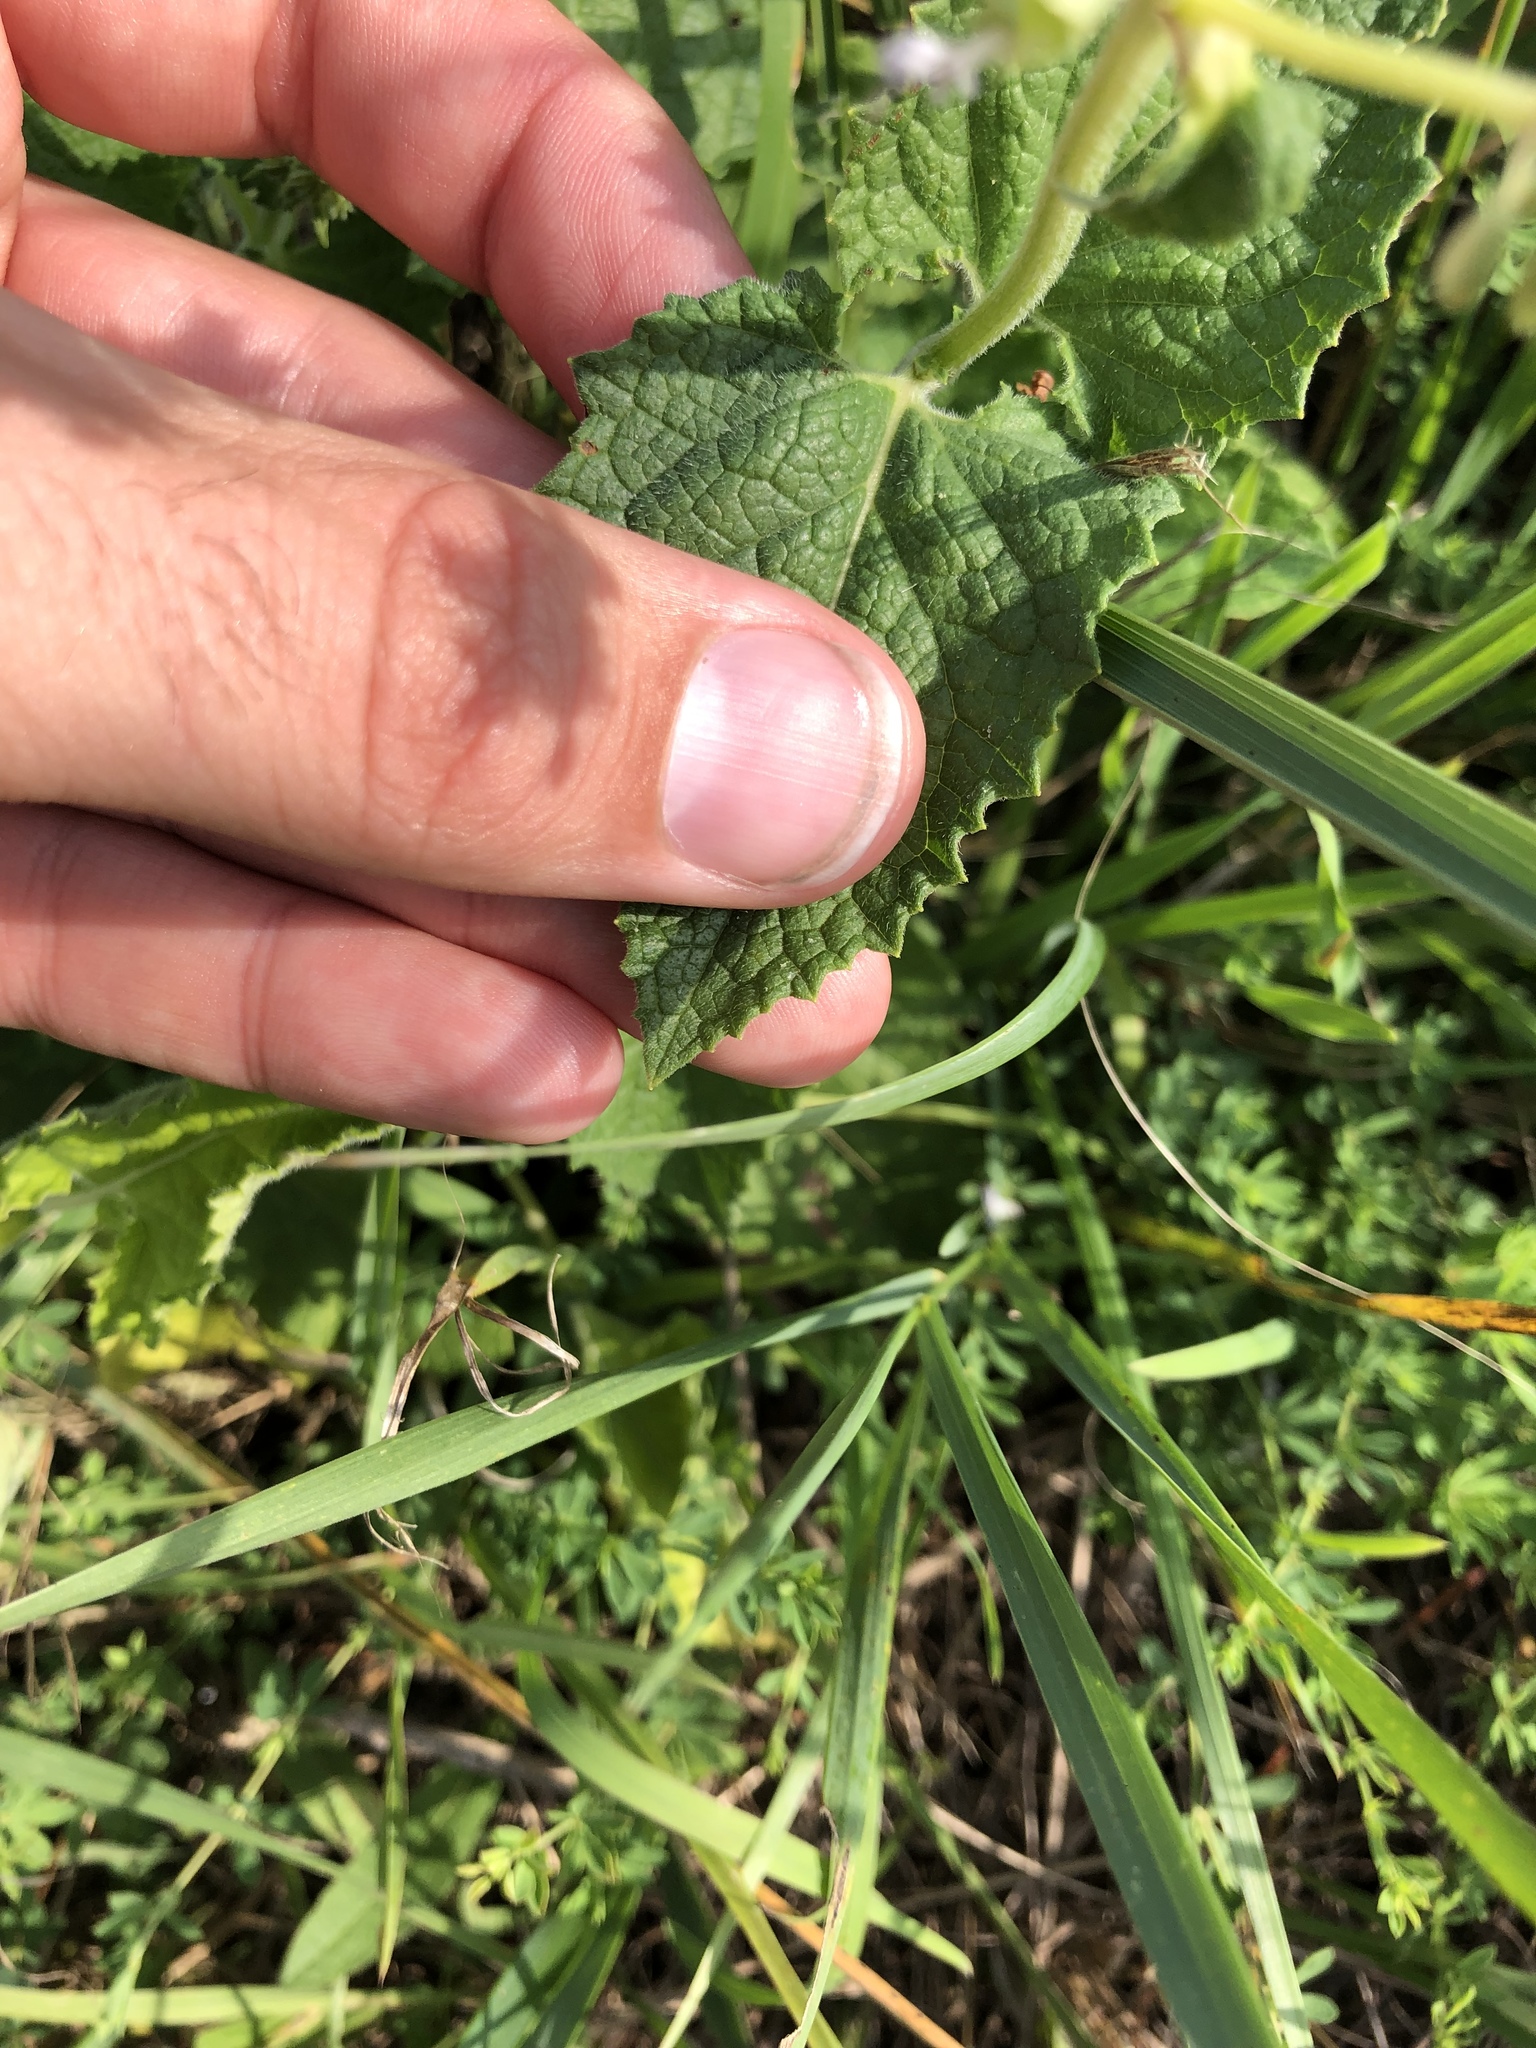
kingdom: Plantae
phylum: Tracheophyta
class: Magnoliopsida
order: Lamiales
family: Lamiaceae
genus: Salvia
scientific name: Salvia verticillata
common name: Whorled clary
